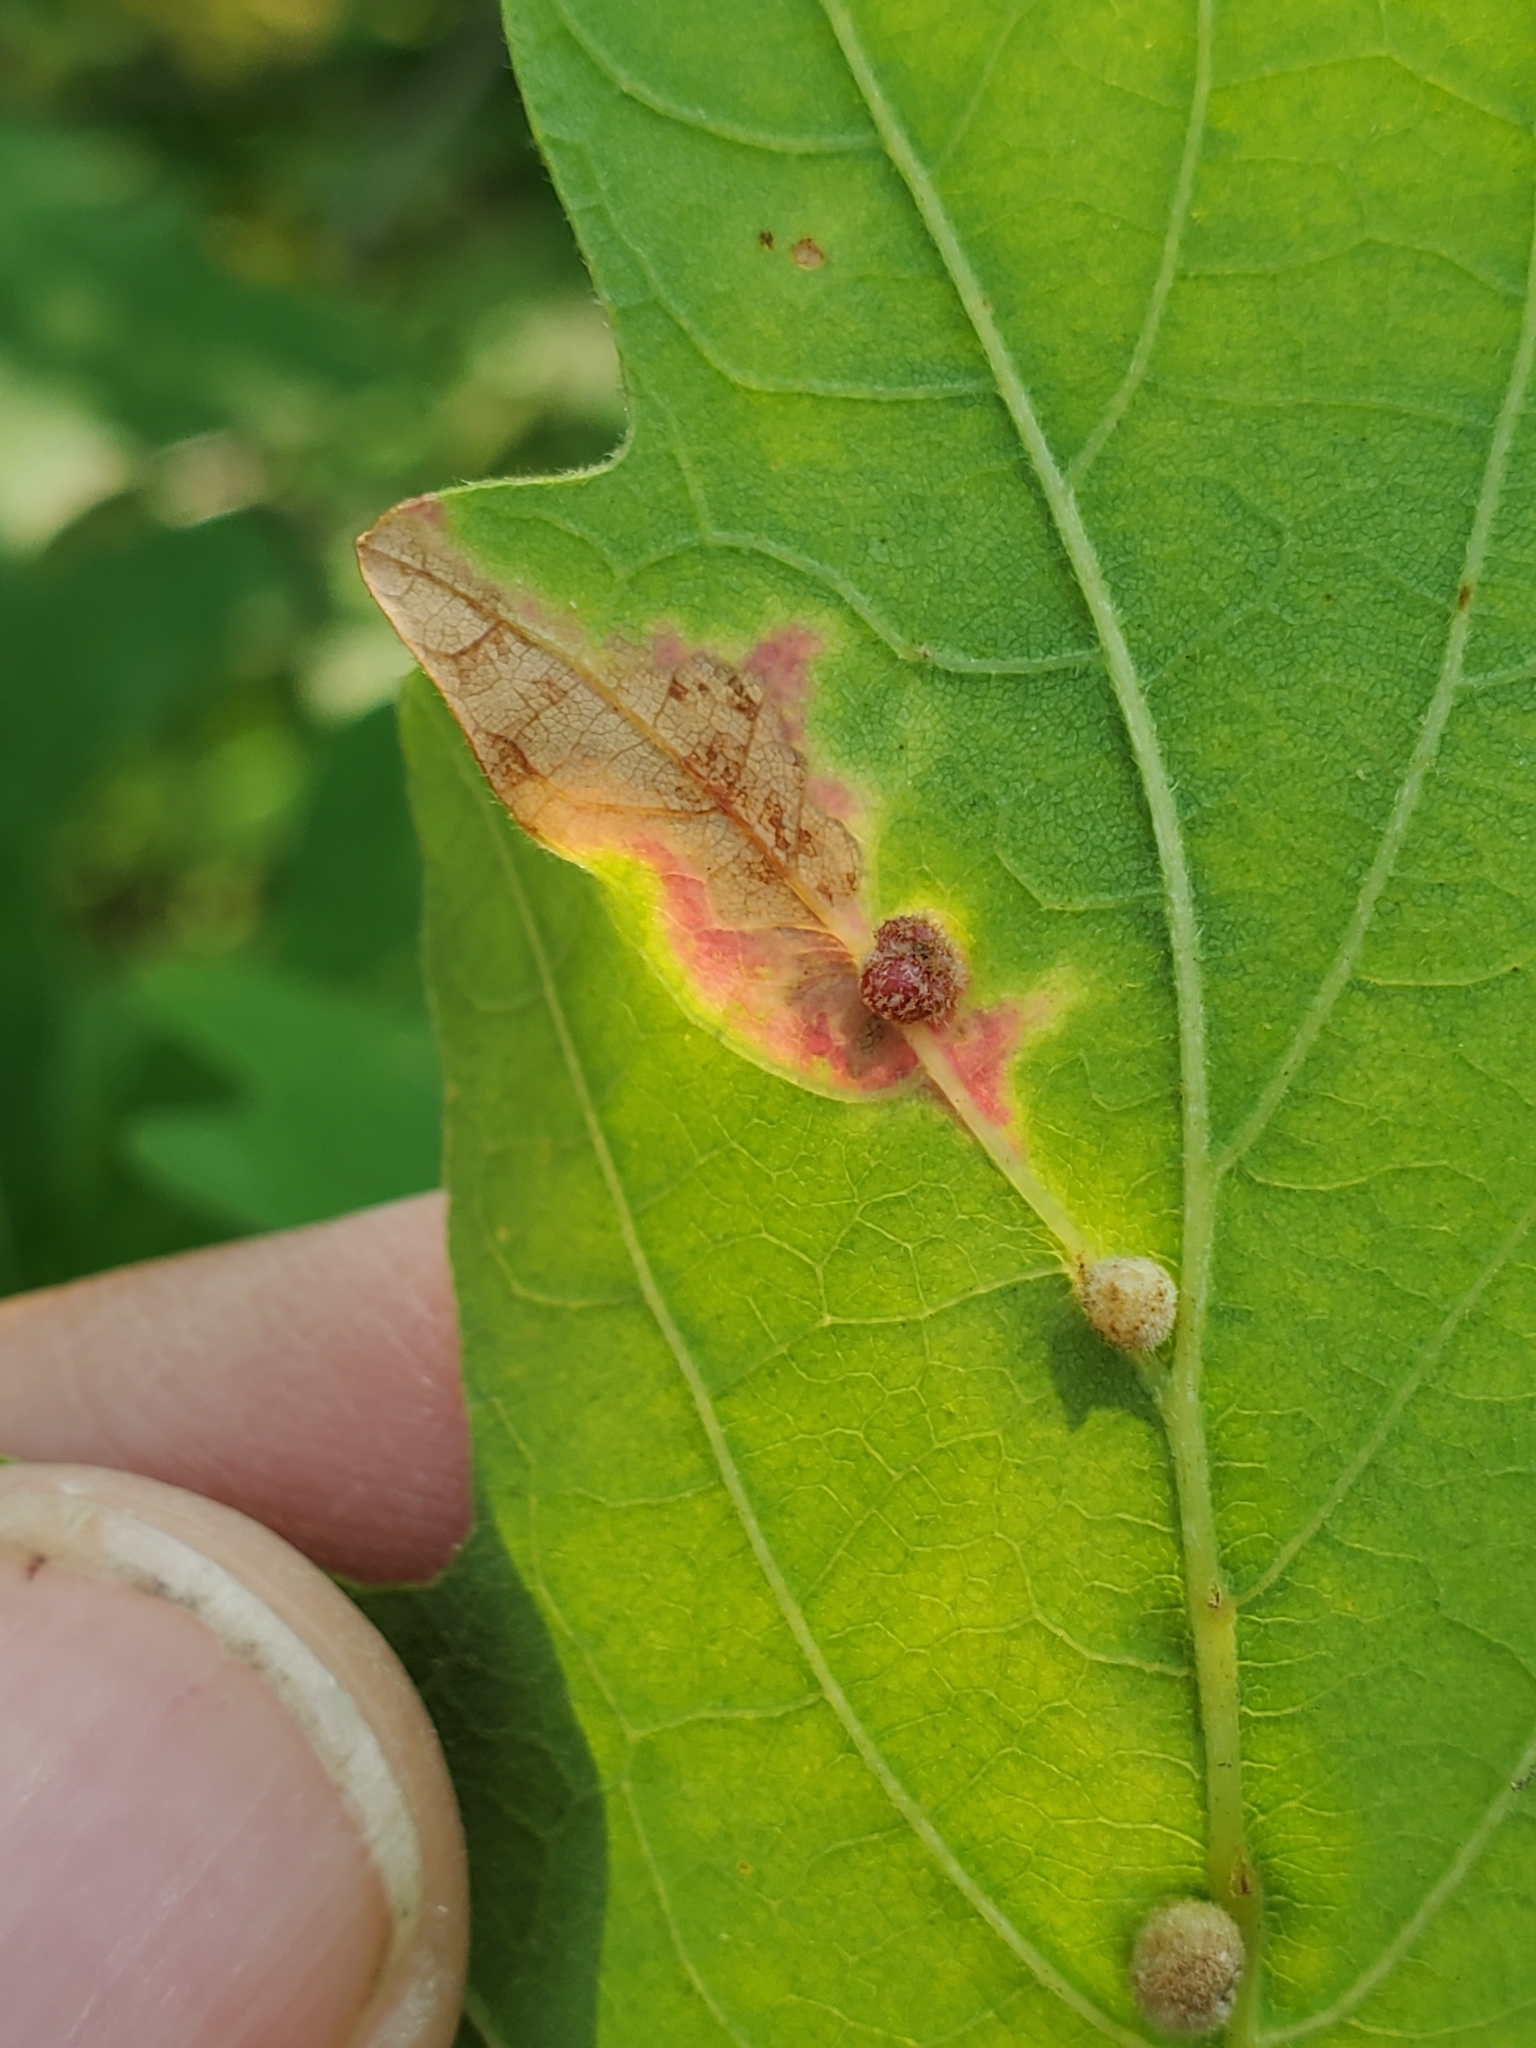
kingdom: Animalia
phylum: Arthropoda
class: Insecta
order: Hymenoptera
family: Cynipidae
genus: Philonix
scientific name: Philonix fulvicollis
